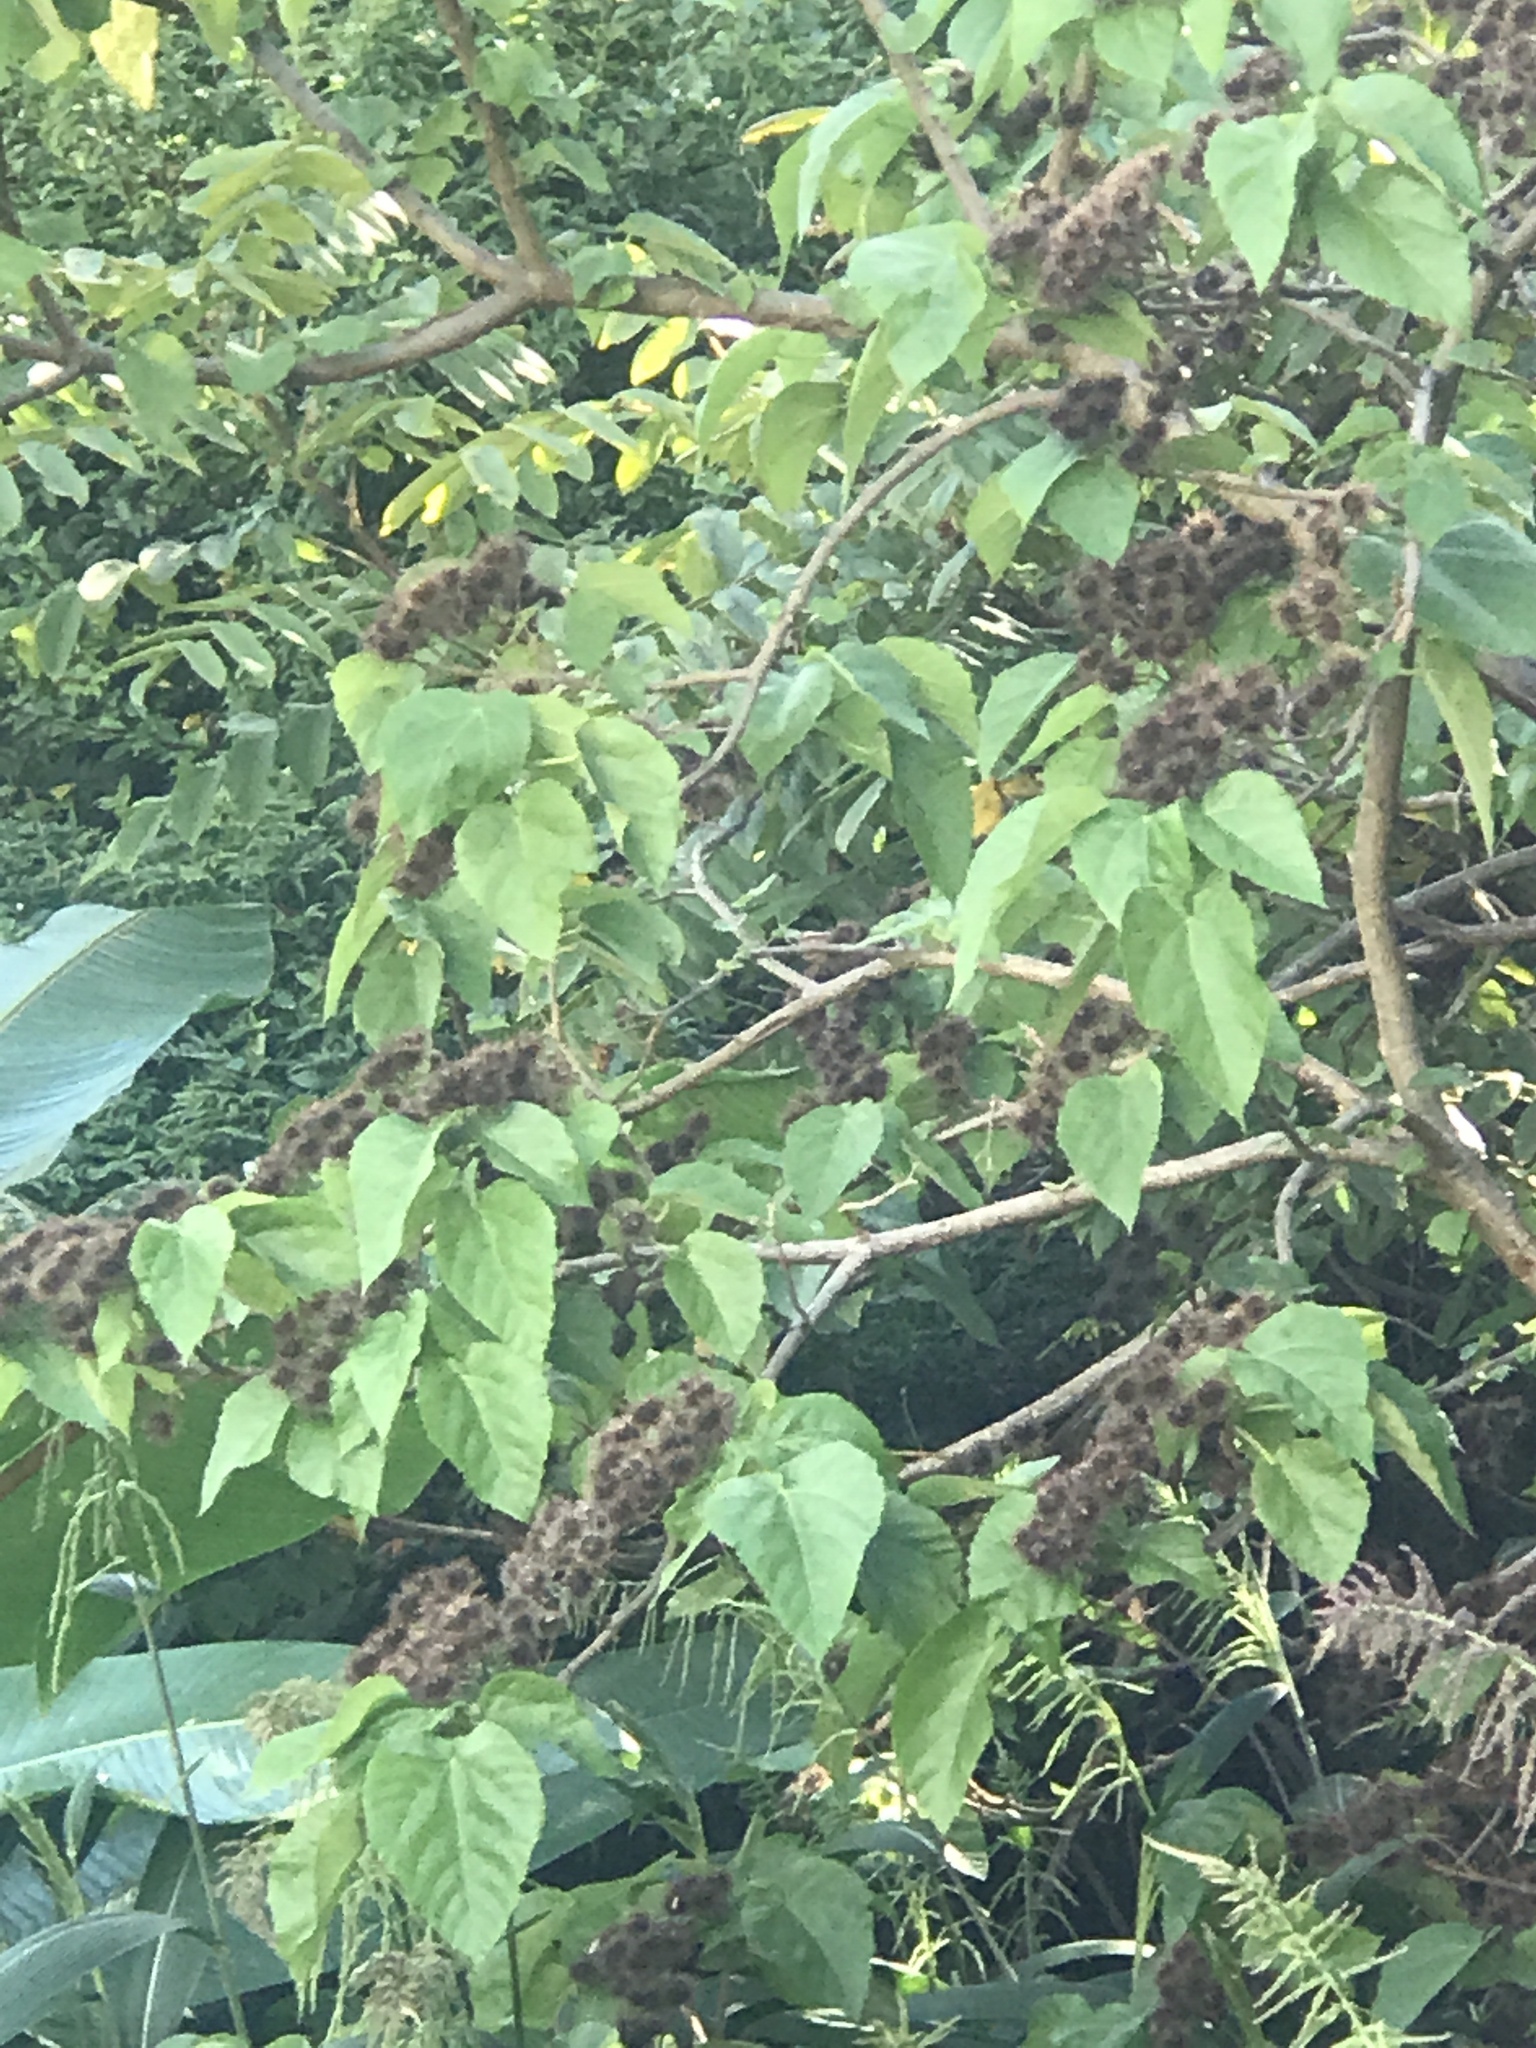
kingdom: Plantae
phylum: Tracheophyta
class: Magnoliopsida
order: Malvales
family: Malvaceae
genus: Entelea
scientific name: Entelea arborescens
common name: New zealand-mulberry
